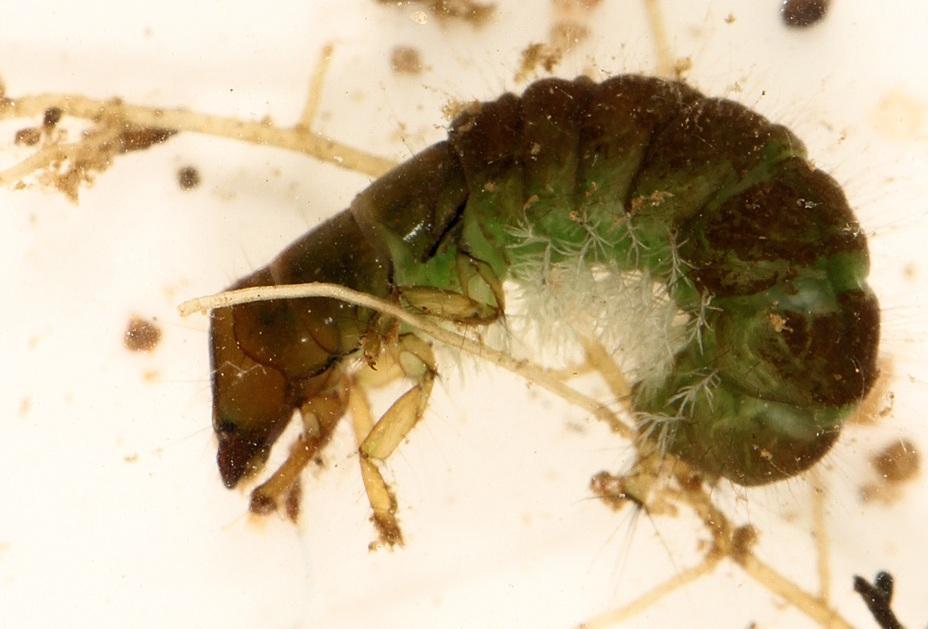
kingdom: Animalia
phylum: Arthropoda
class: Insecta
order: Trichoptera
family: Hydropsychidae
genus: Macrostemum
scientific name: Macrostemum capense
